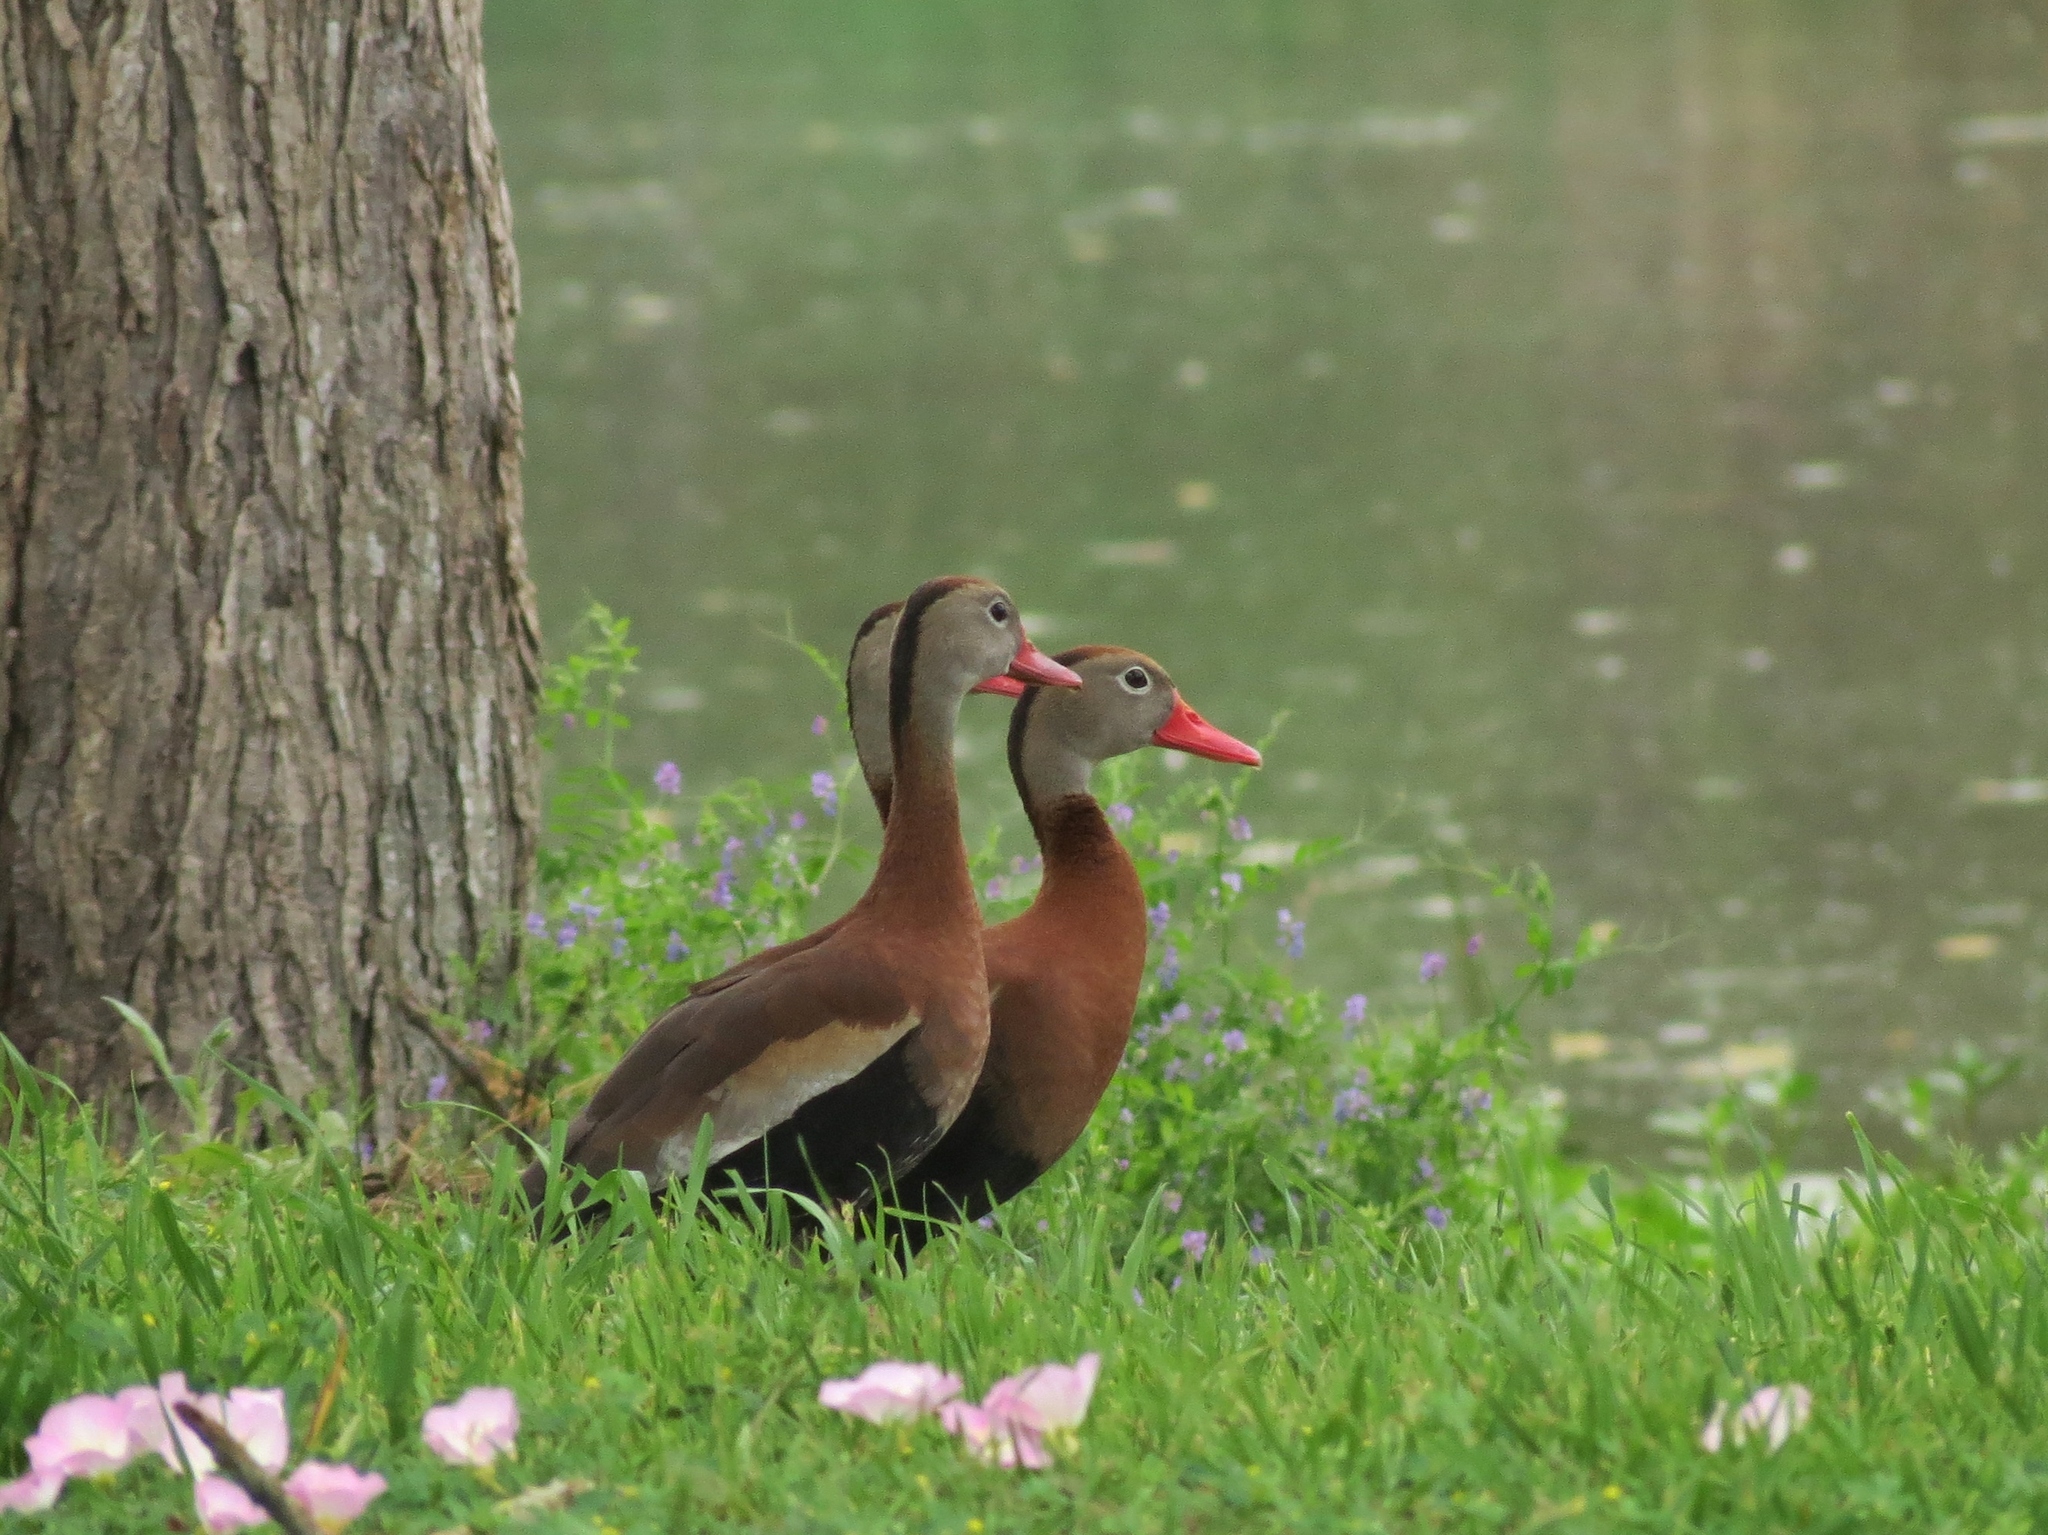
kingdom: Animalia
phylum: Chordata
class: Aves
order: Anseriformes
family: Anatidae
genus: Dendrocygna
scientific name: Dendrocygna autumnalis
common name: Black-bellied whistling duck
